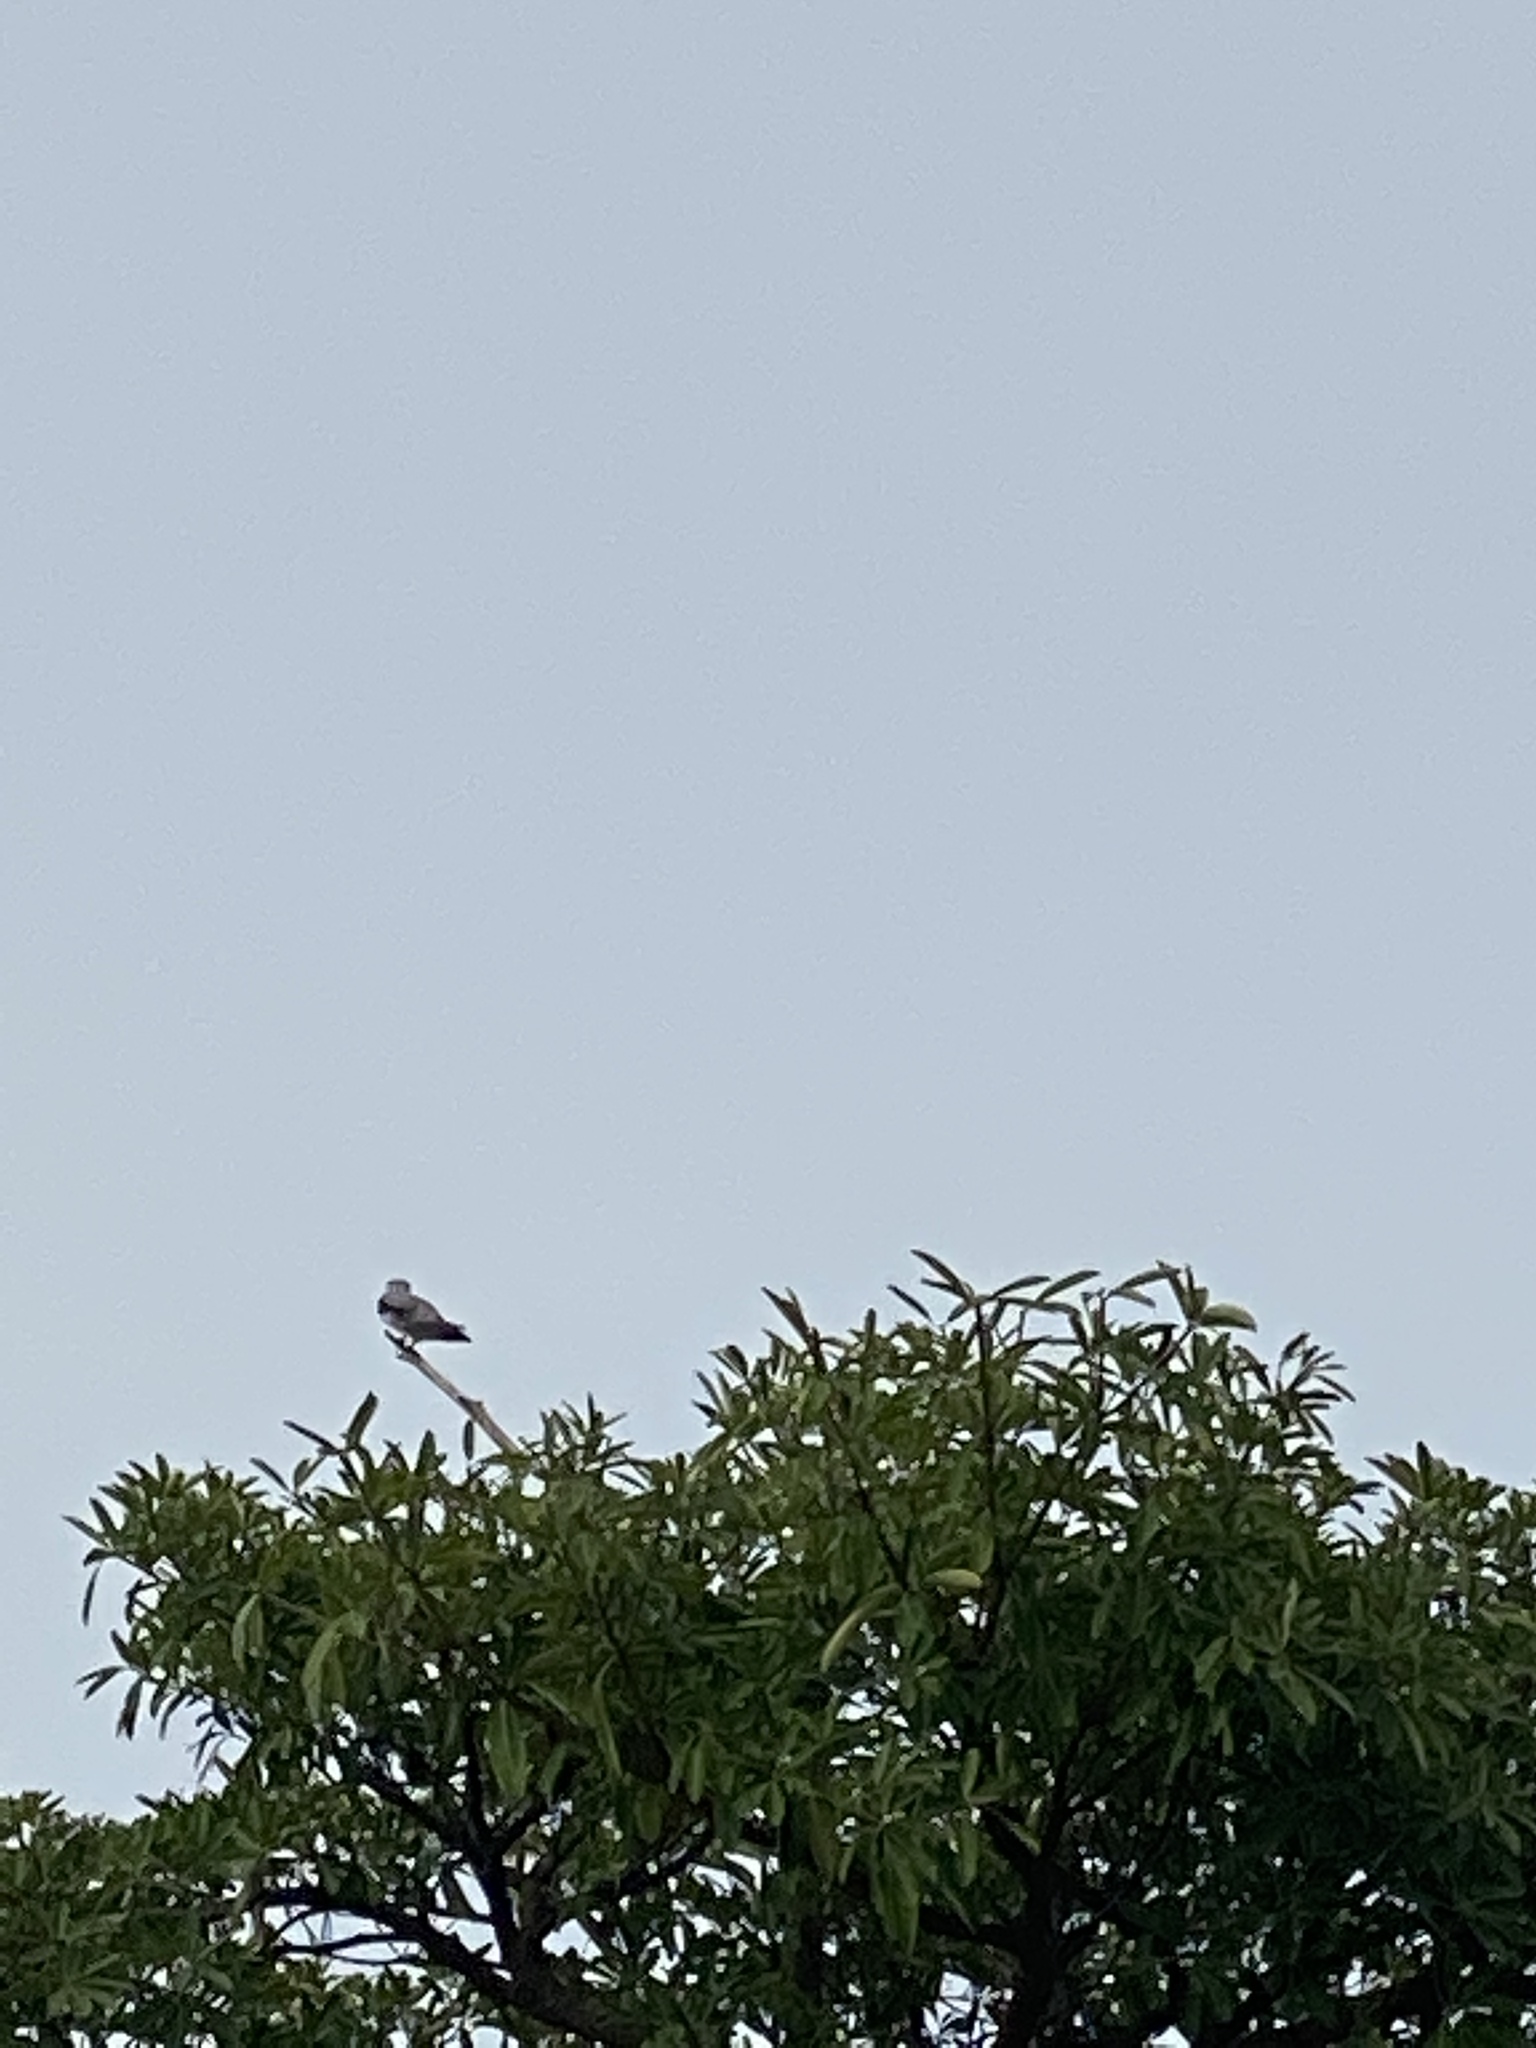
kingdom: Animalia
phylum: Chordata
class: Aves
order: Accipitriformes
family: Accipitridae
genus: Elanus
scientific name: Elanus caeruleus
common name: Black-winged kite
